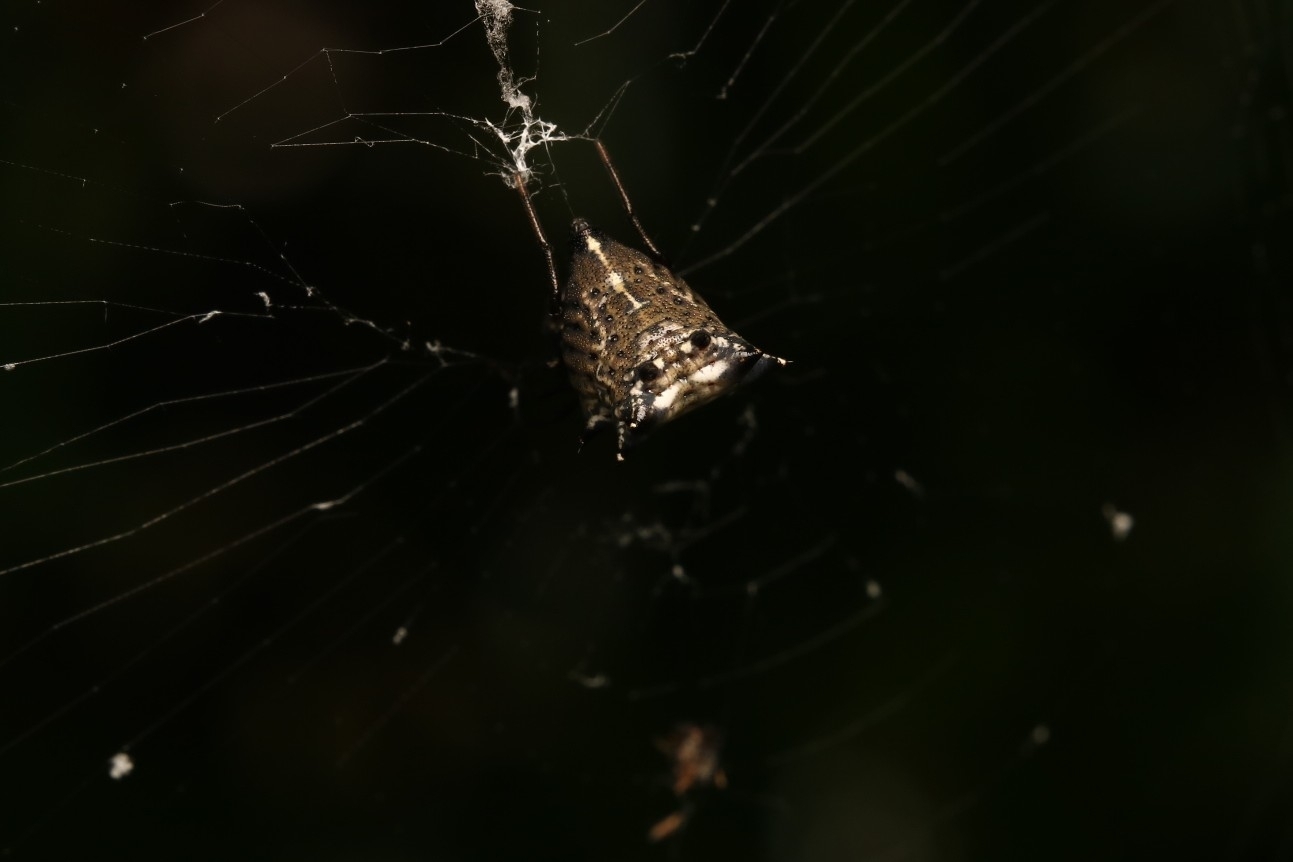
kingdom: Animalia
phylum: Arthropoda
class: Arachnida
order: Araneae
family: Araneidae
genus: Micrathena
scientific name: Micrathena gracilis
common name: Orb weavers
